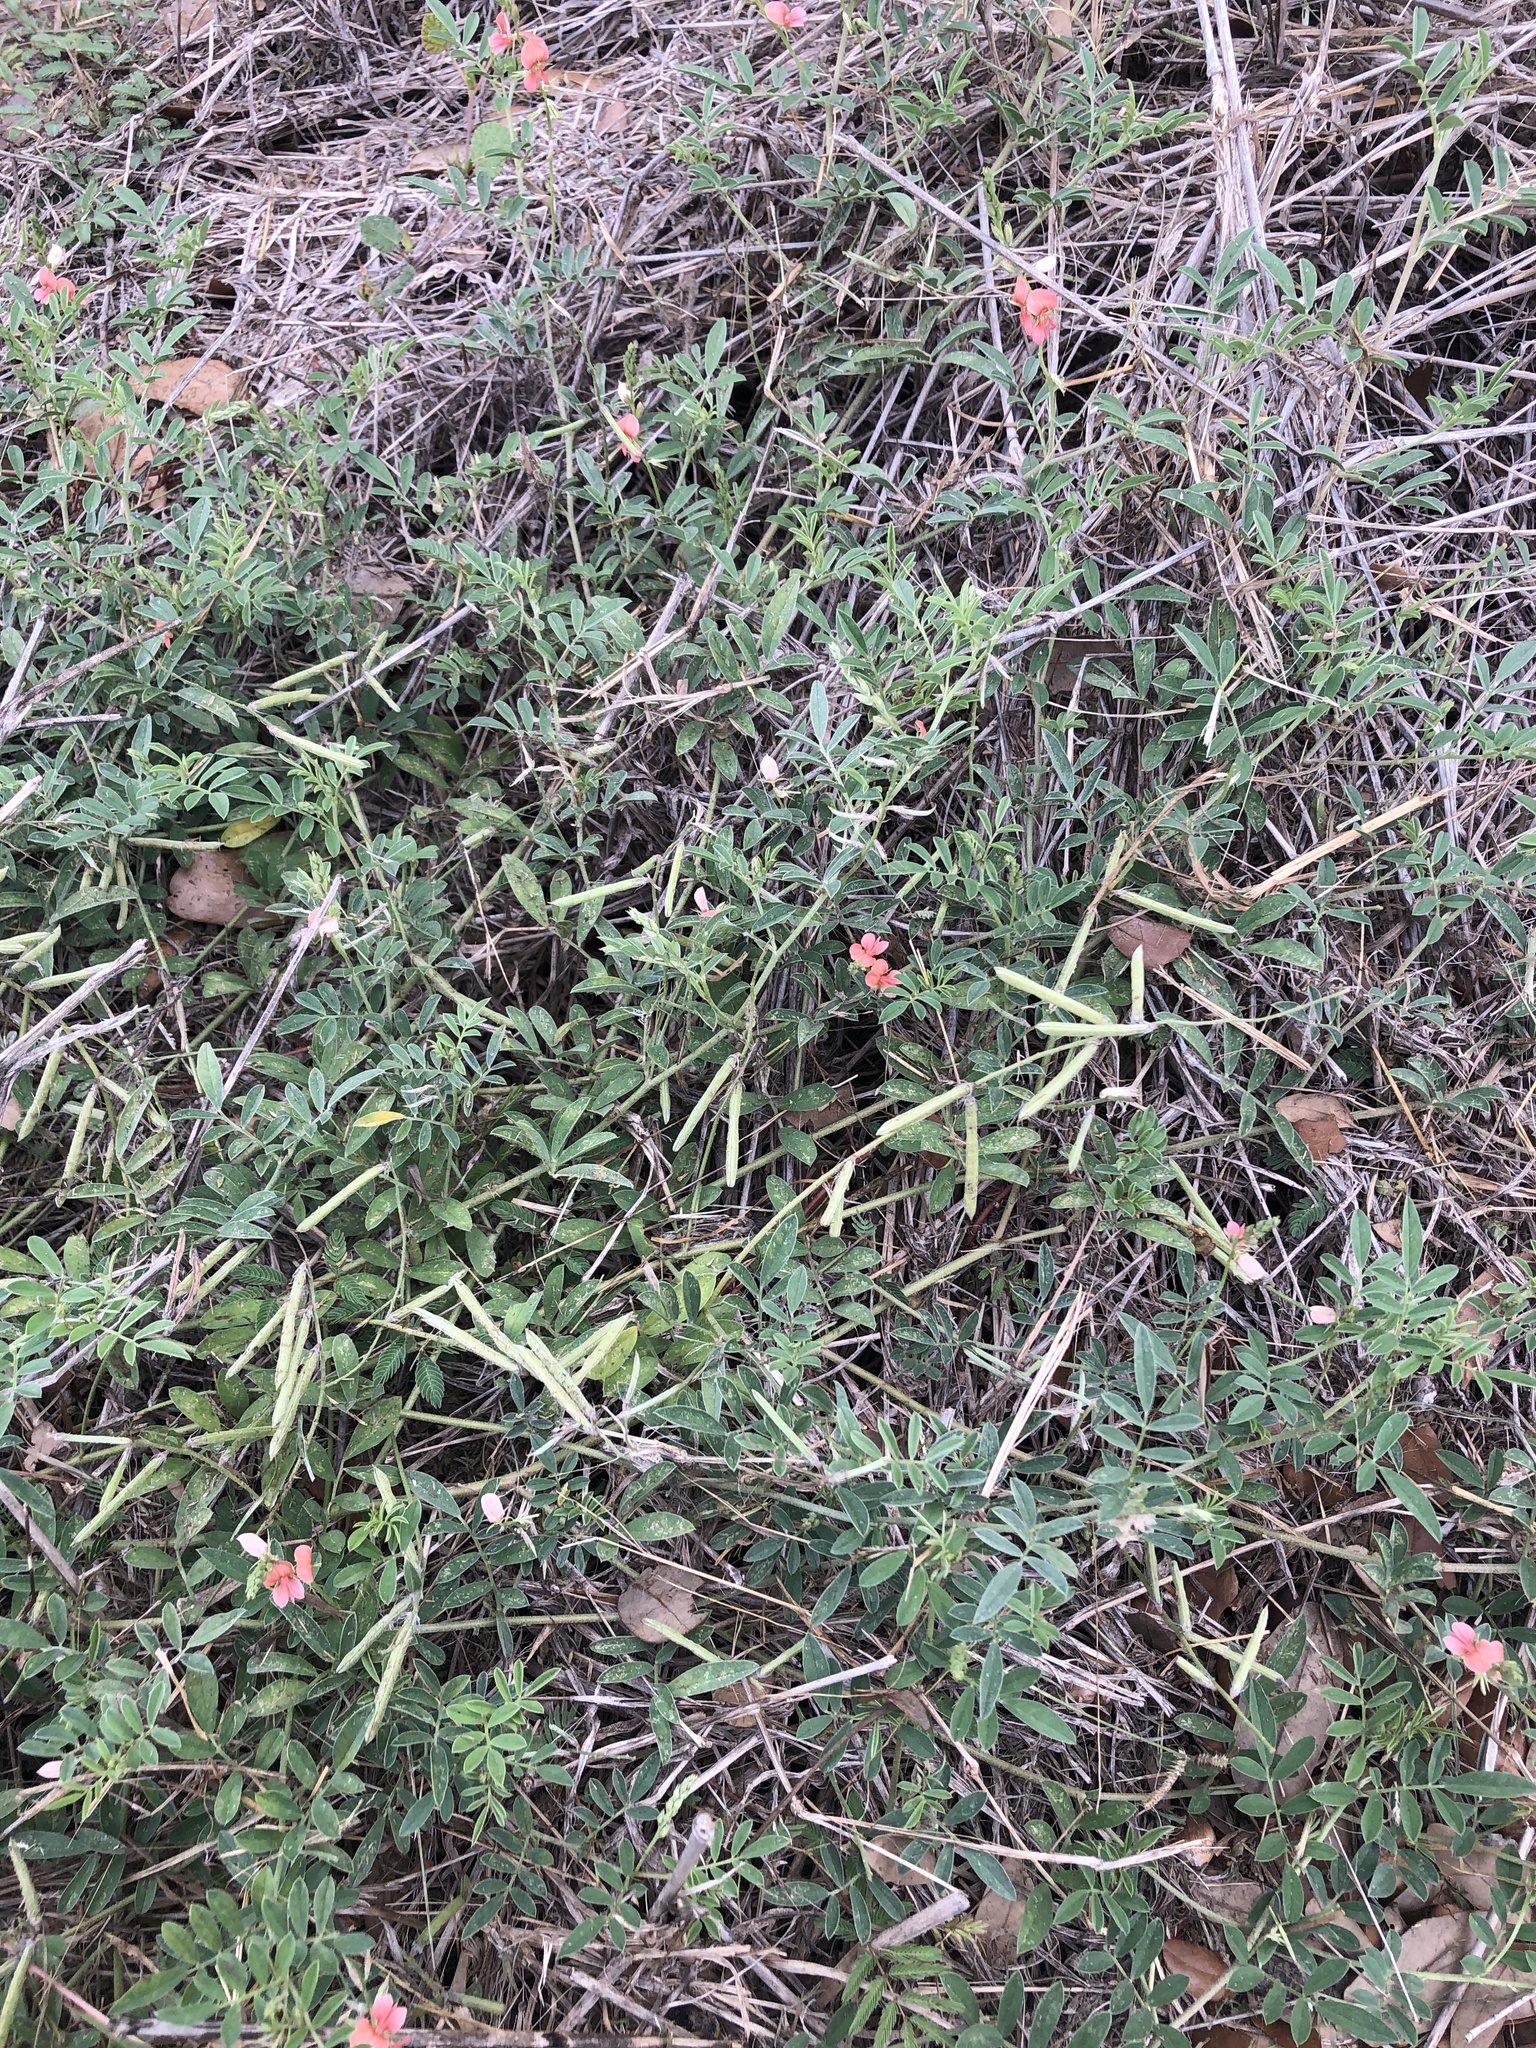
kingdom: Plantae
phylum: Tracheophyta
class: Magnoliopsida
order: Fabales
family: Fabaceae
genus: Indigofera
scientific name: Indigofera miniata
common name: Coast indigo
